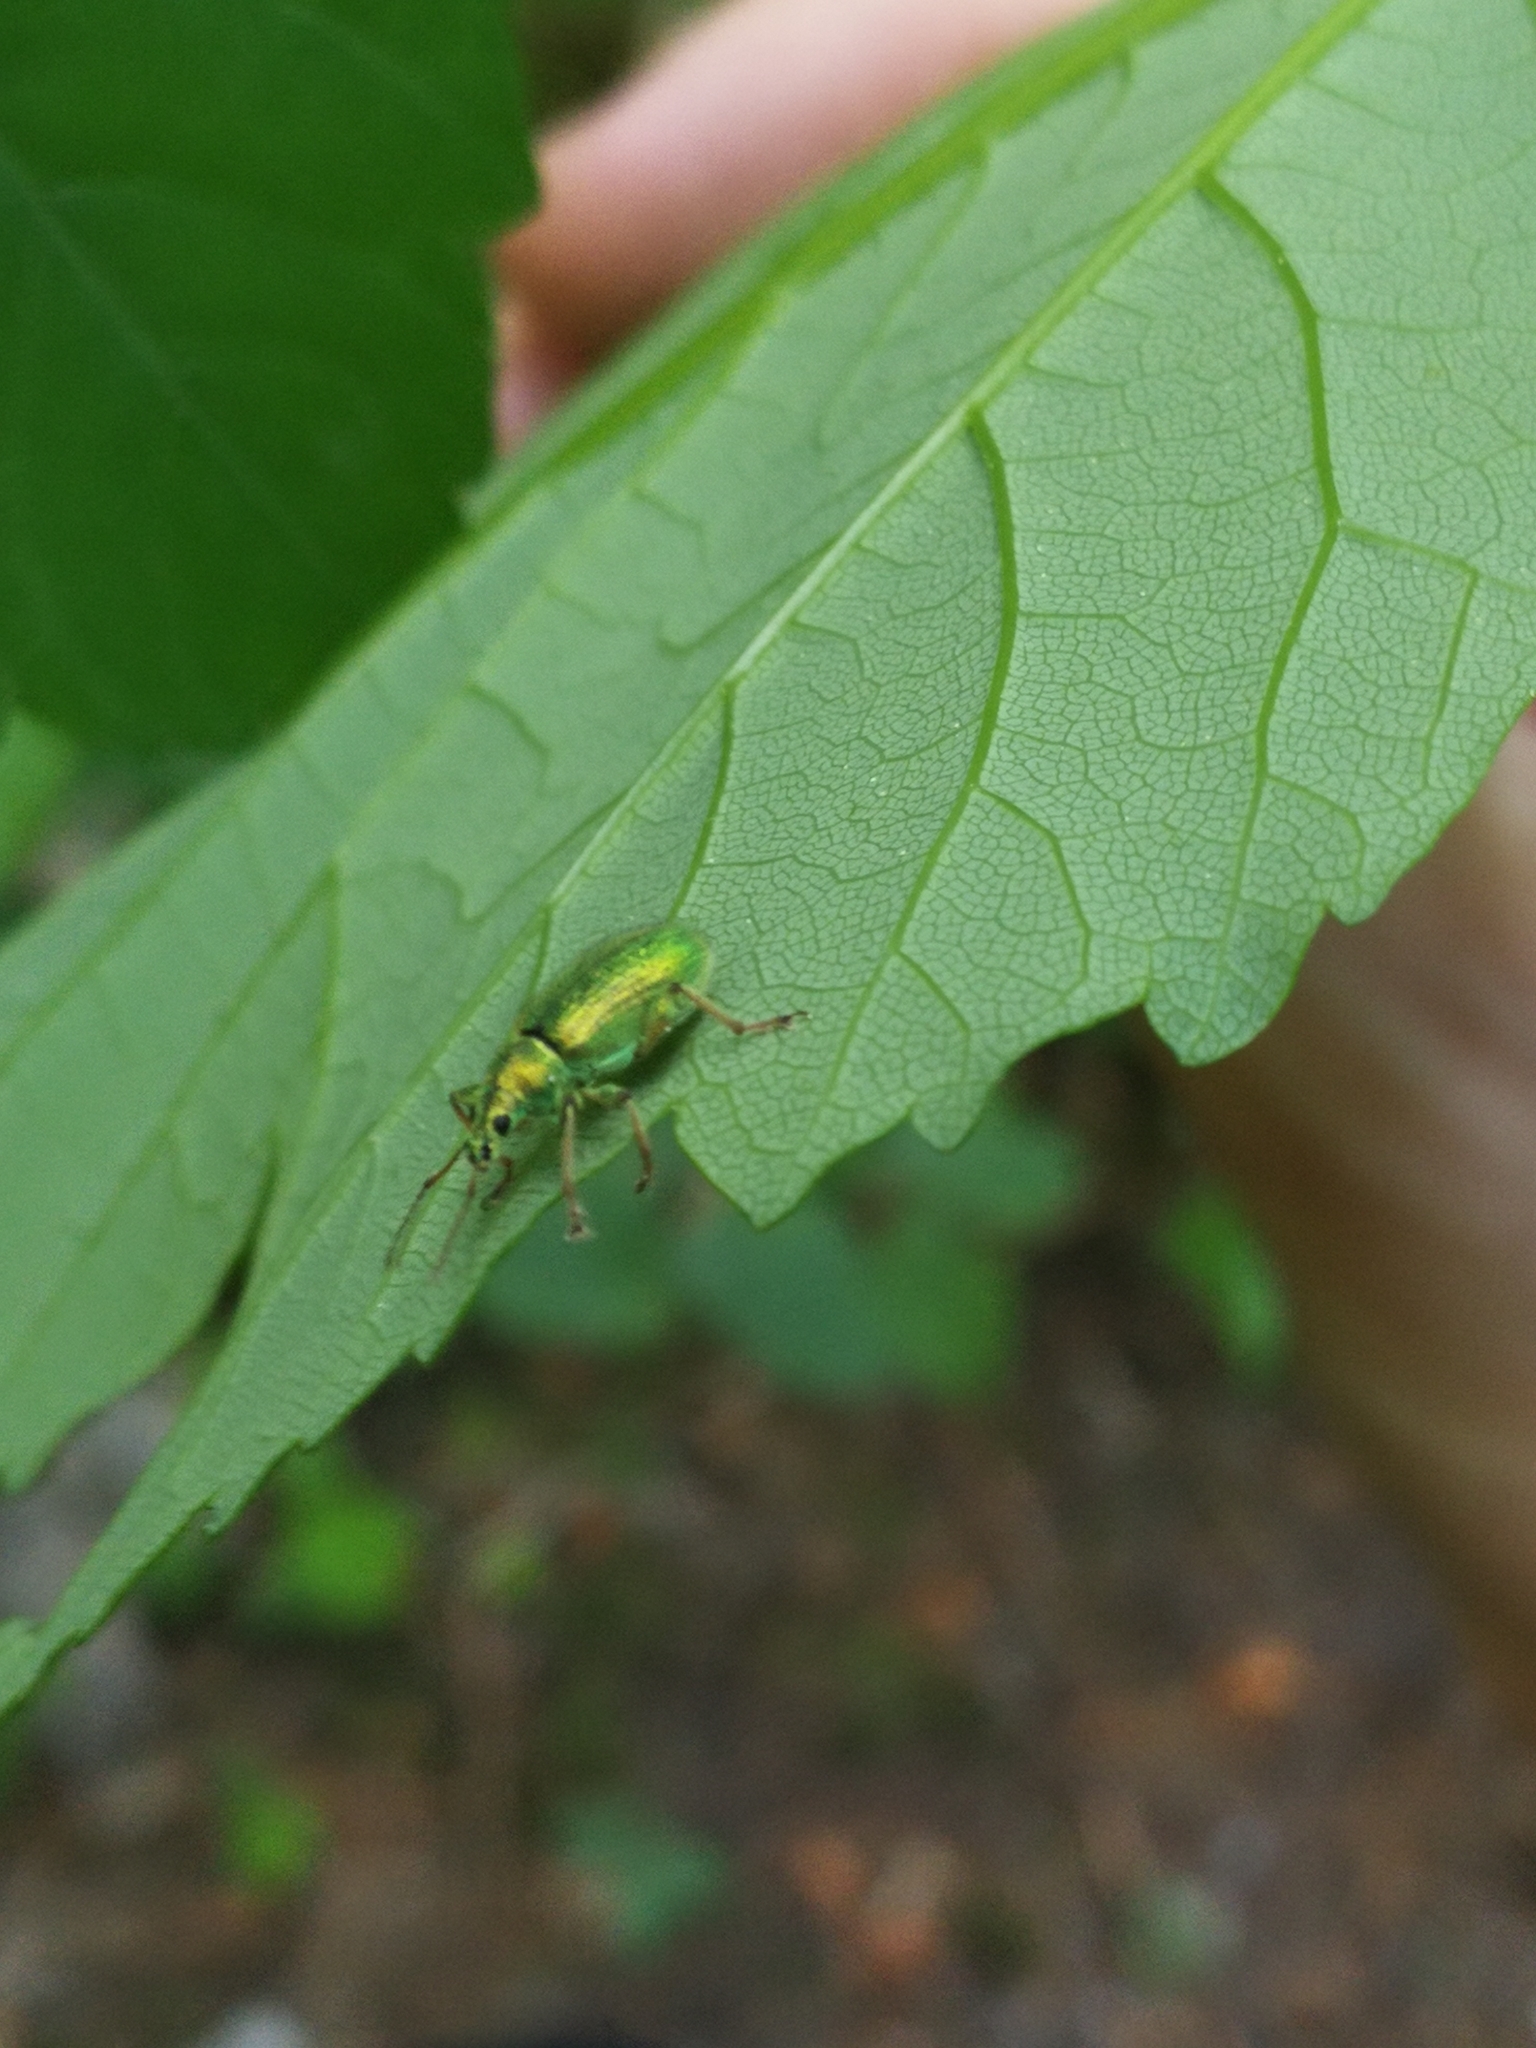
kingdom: Animalia
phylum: Arthropoda
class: Insecta
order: Coleoptera
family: Curculionidae
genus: Polydrusus
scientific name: Polydrusus formosus
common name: Weevil
